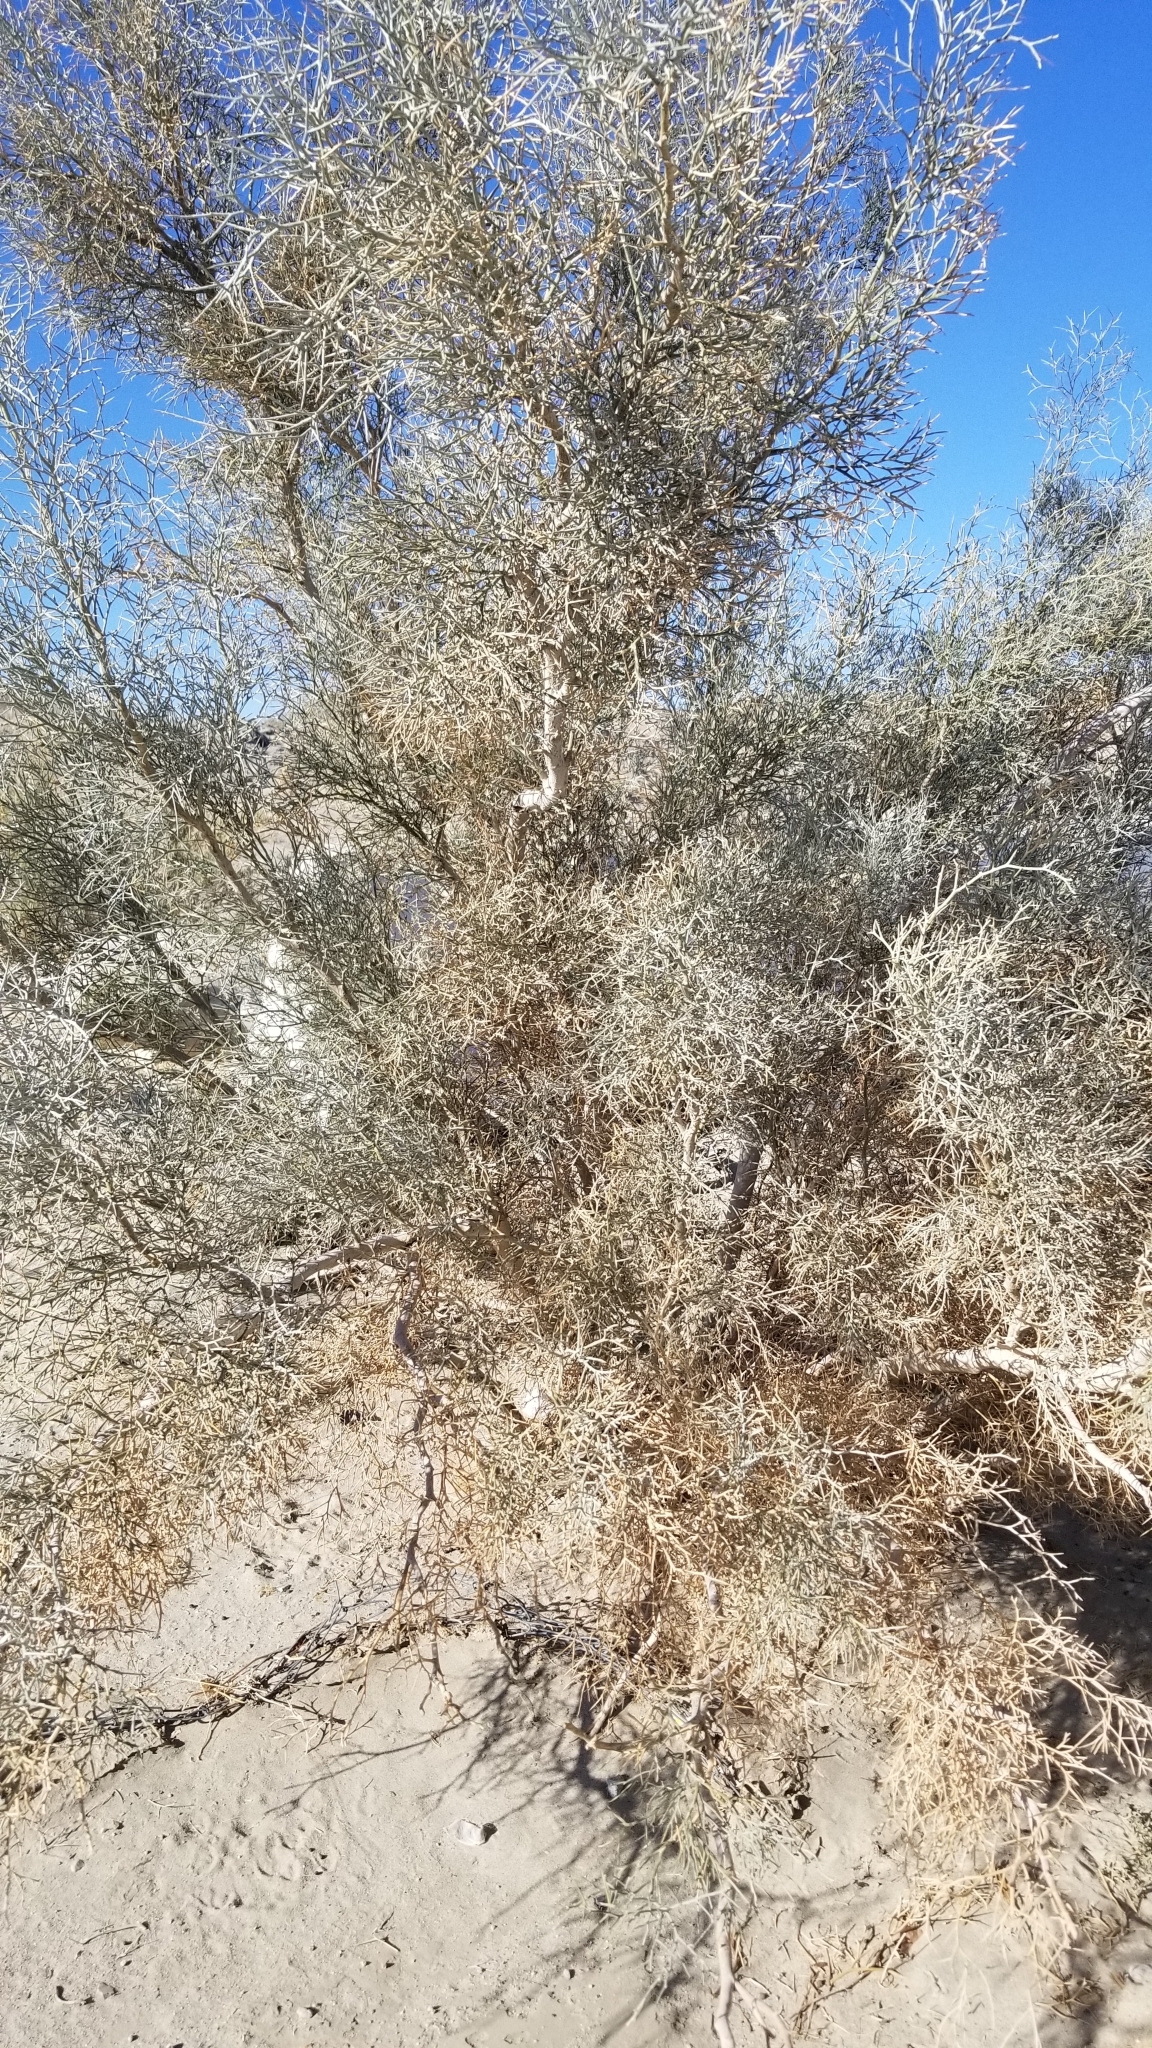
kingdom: Plantae
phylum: Tracheophyta
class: Magnoliopsida
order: Fabales
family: Fabaceae
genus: Psorothamnus
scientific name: Psorothamnus spinosus
